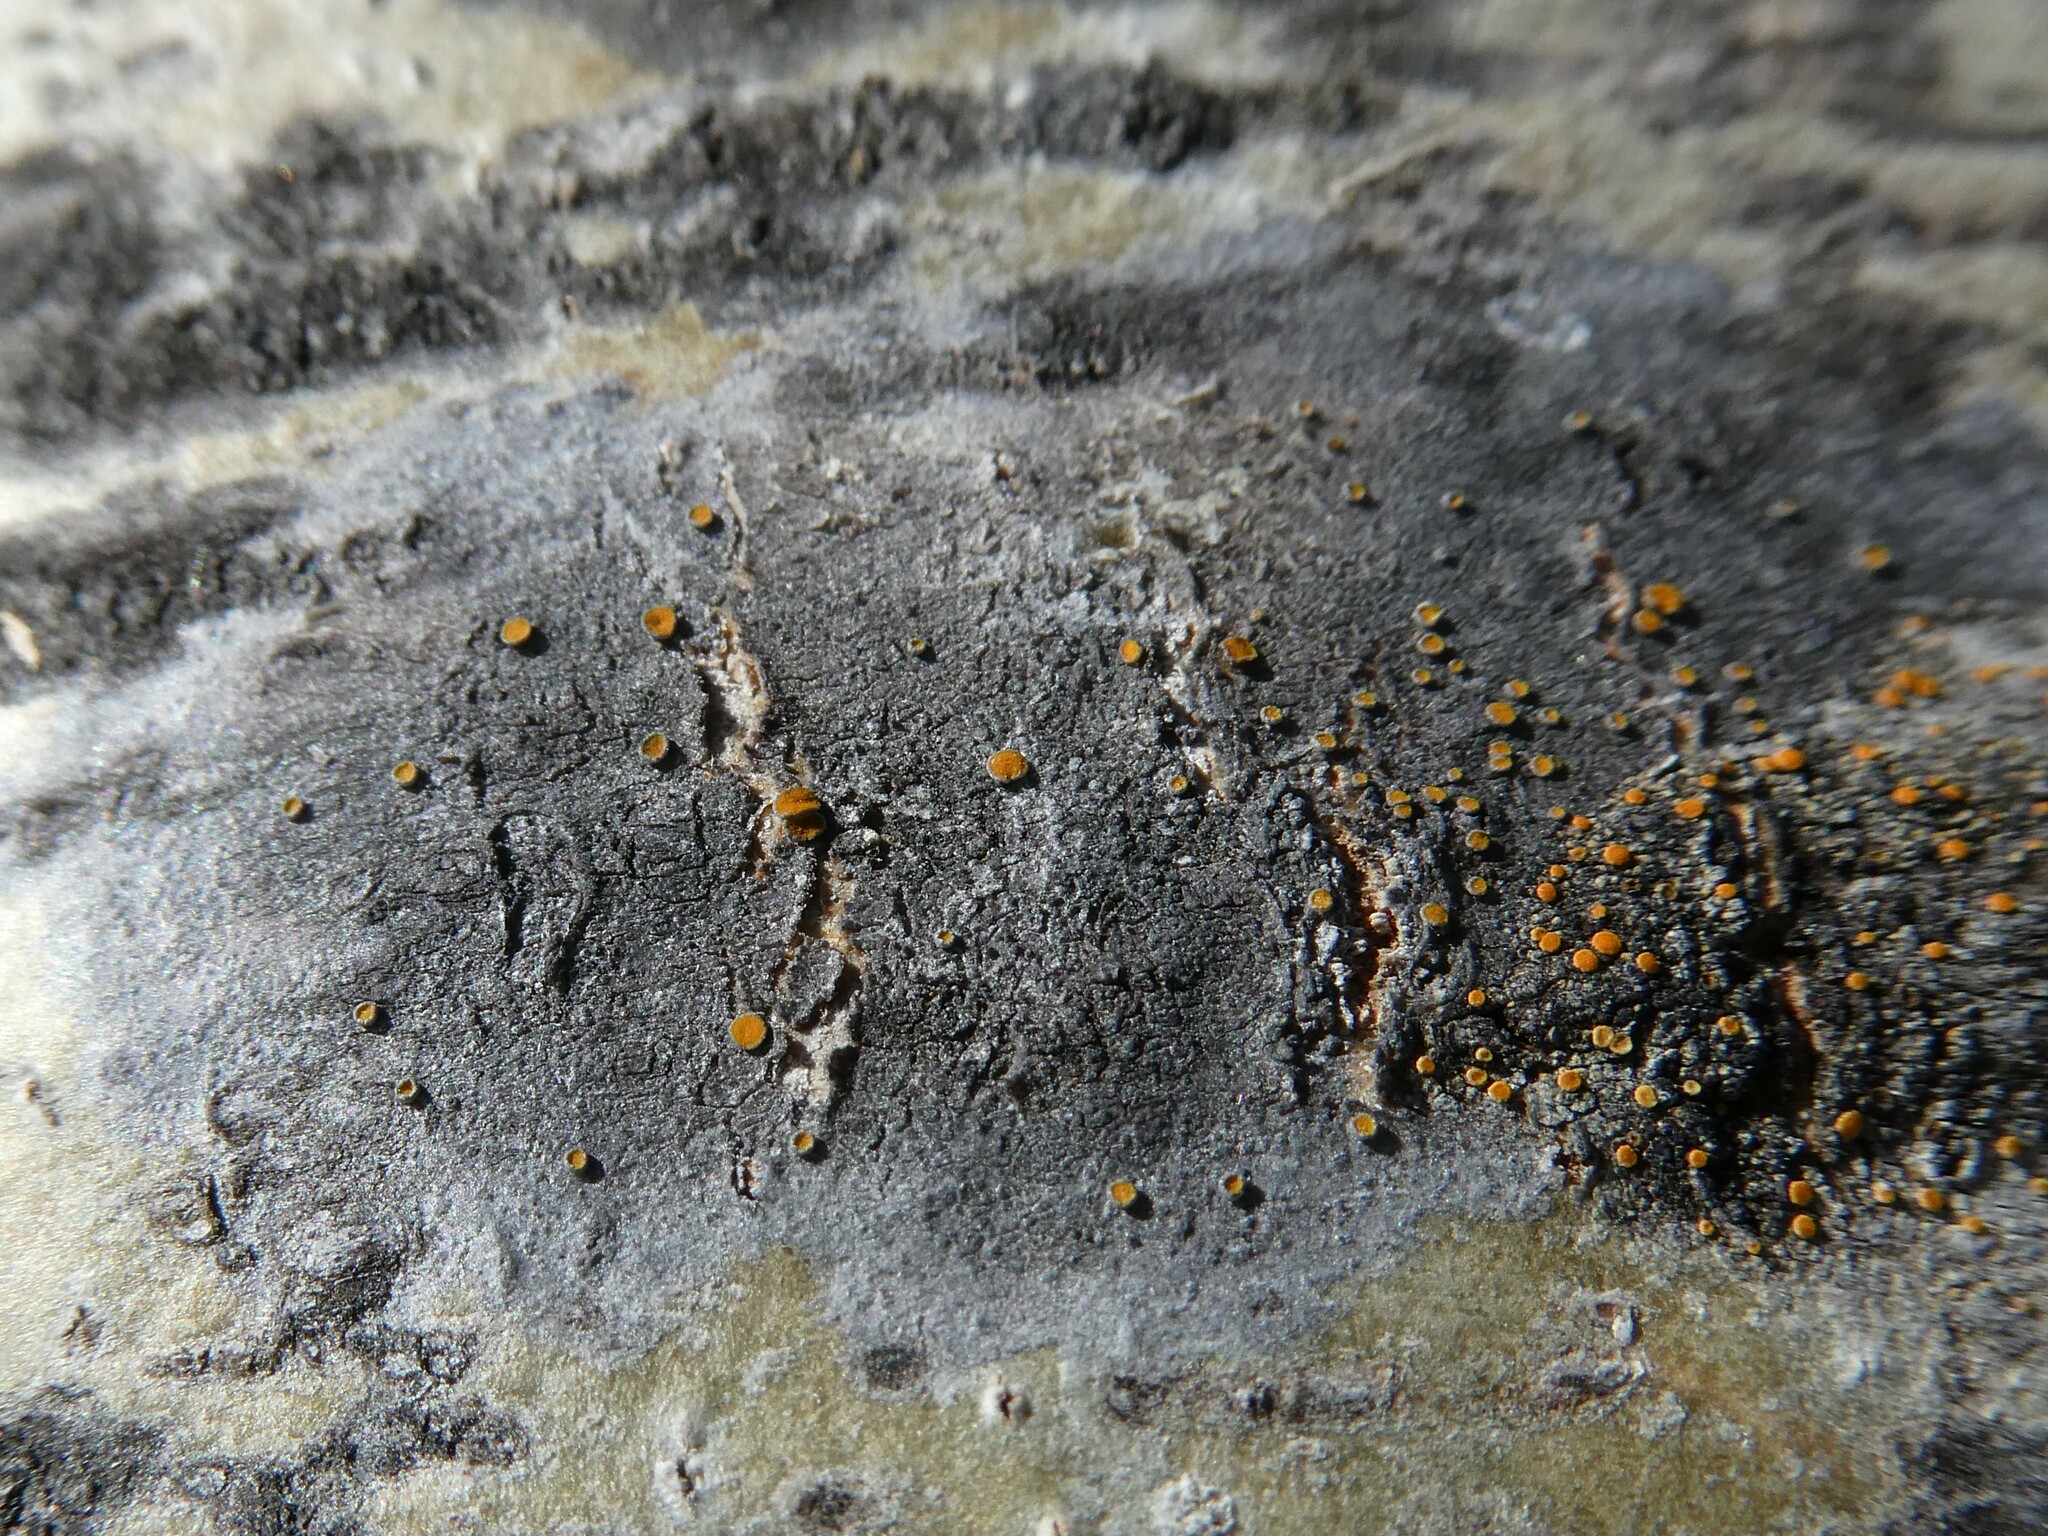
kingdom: Fungi
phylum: Ascomycota
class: Lecanoromycetes
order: Teloschistales
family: Teloschistaceae
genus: Caloplaca
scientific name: Caloplaca cerina
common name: Gray-rimmed firedot lichen
